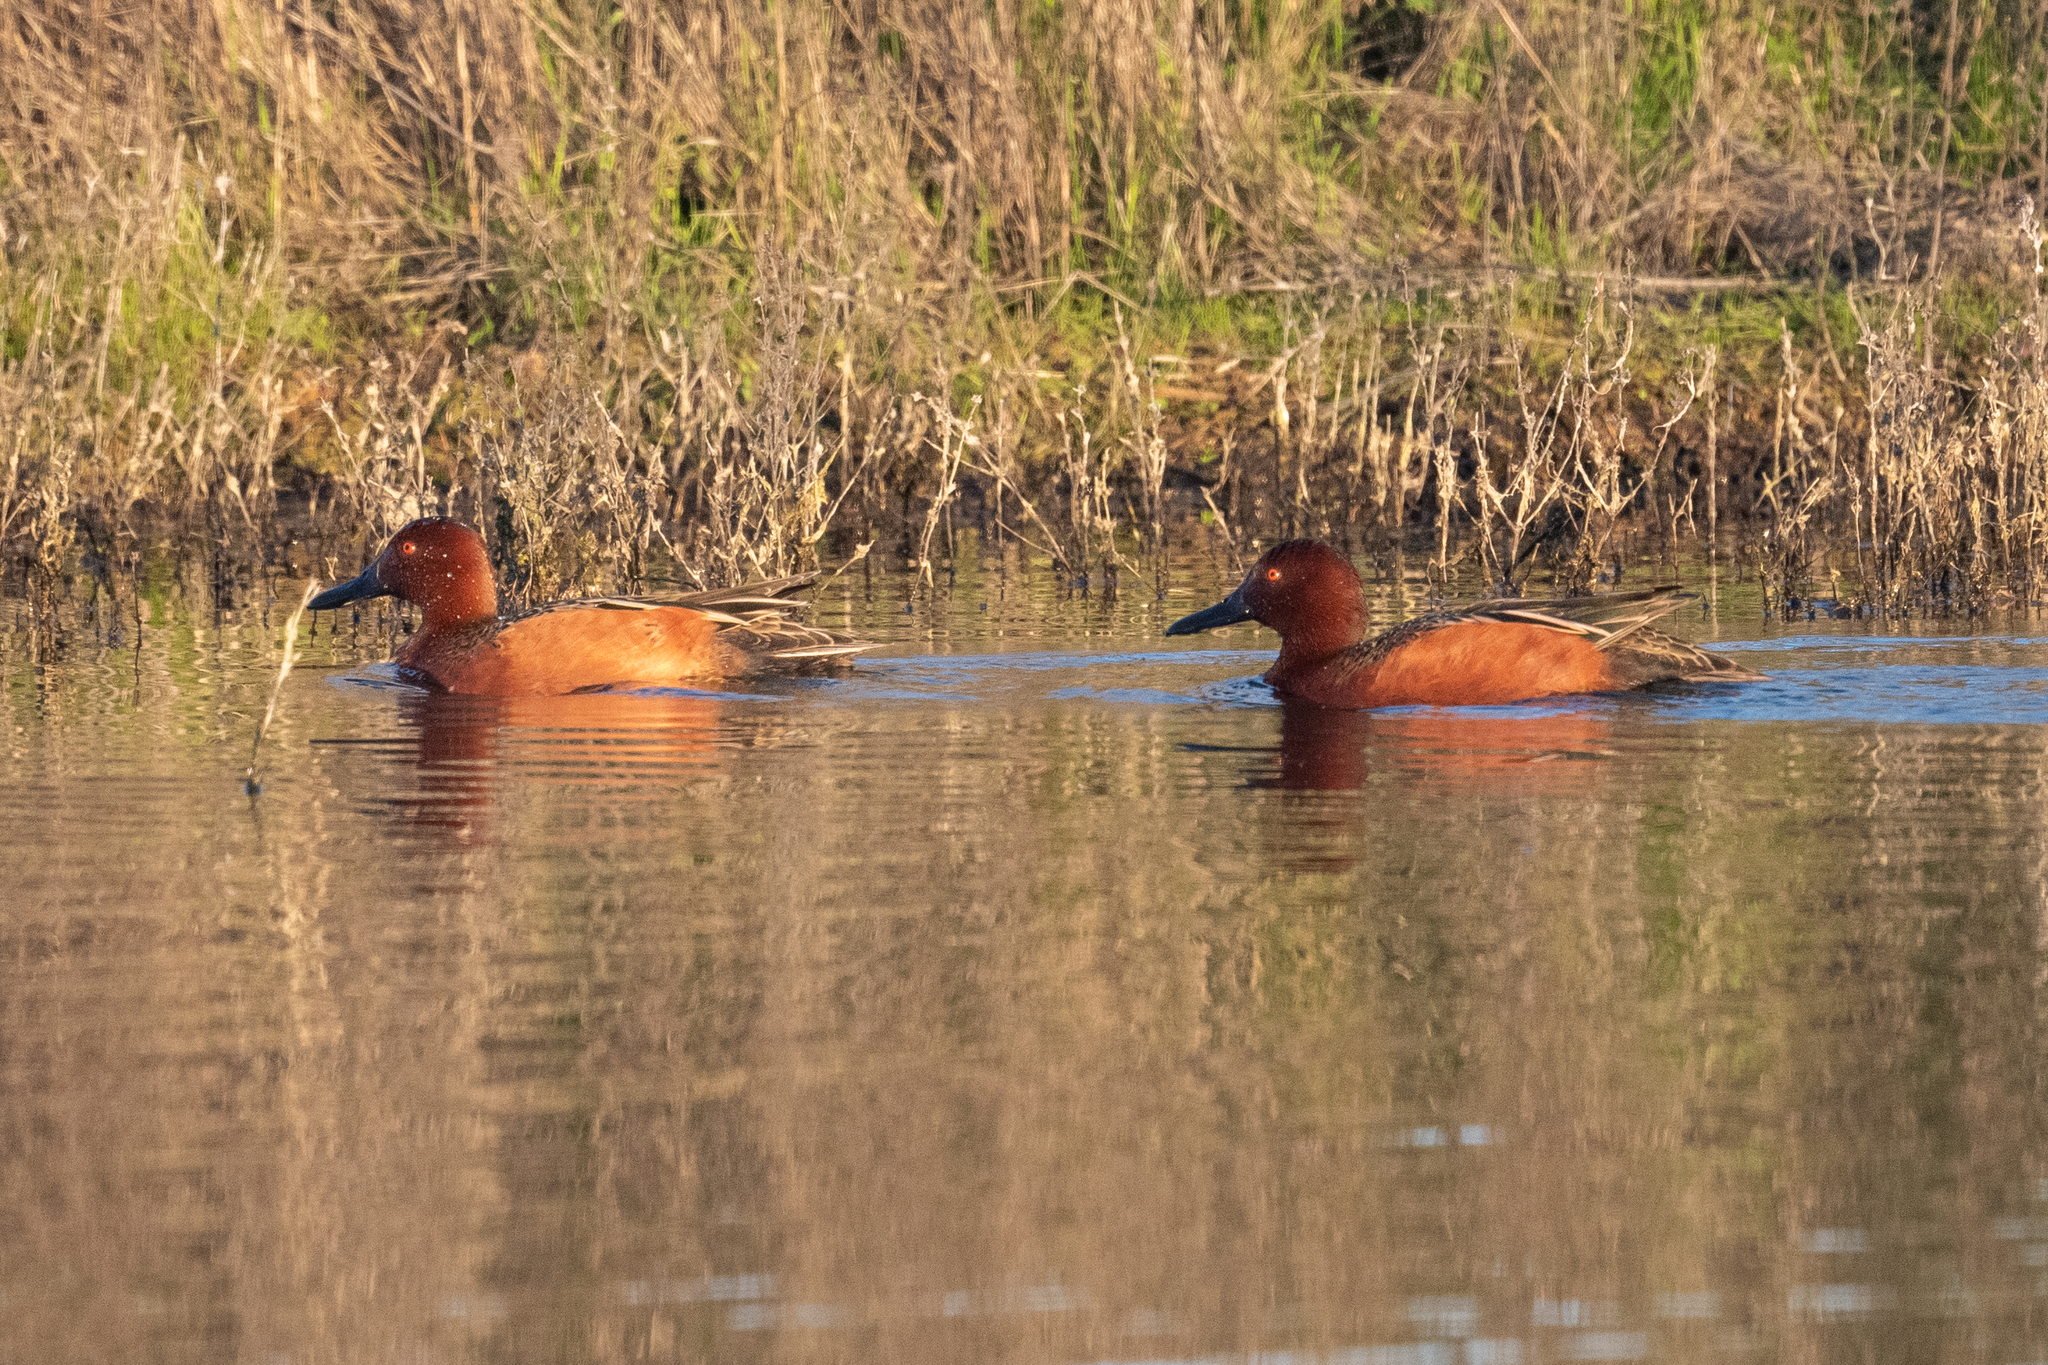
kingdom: Animalia
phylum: Chordata
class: Aves
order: Anseriformes
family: Anatidae
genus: Spatula
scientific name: Spatula cyanoptera
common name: Cinnamon teal
